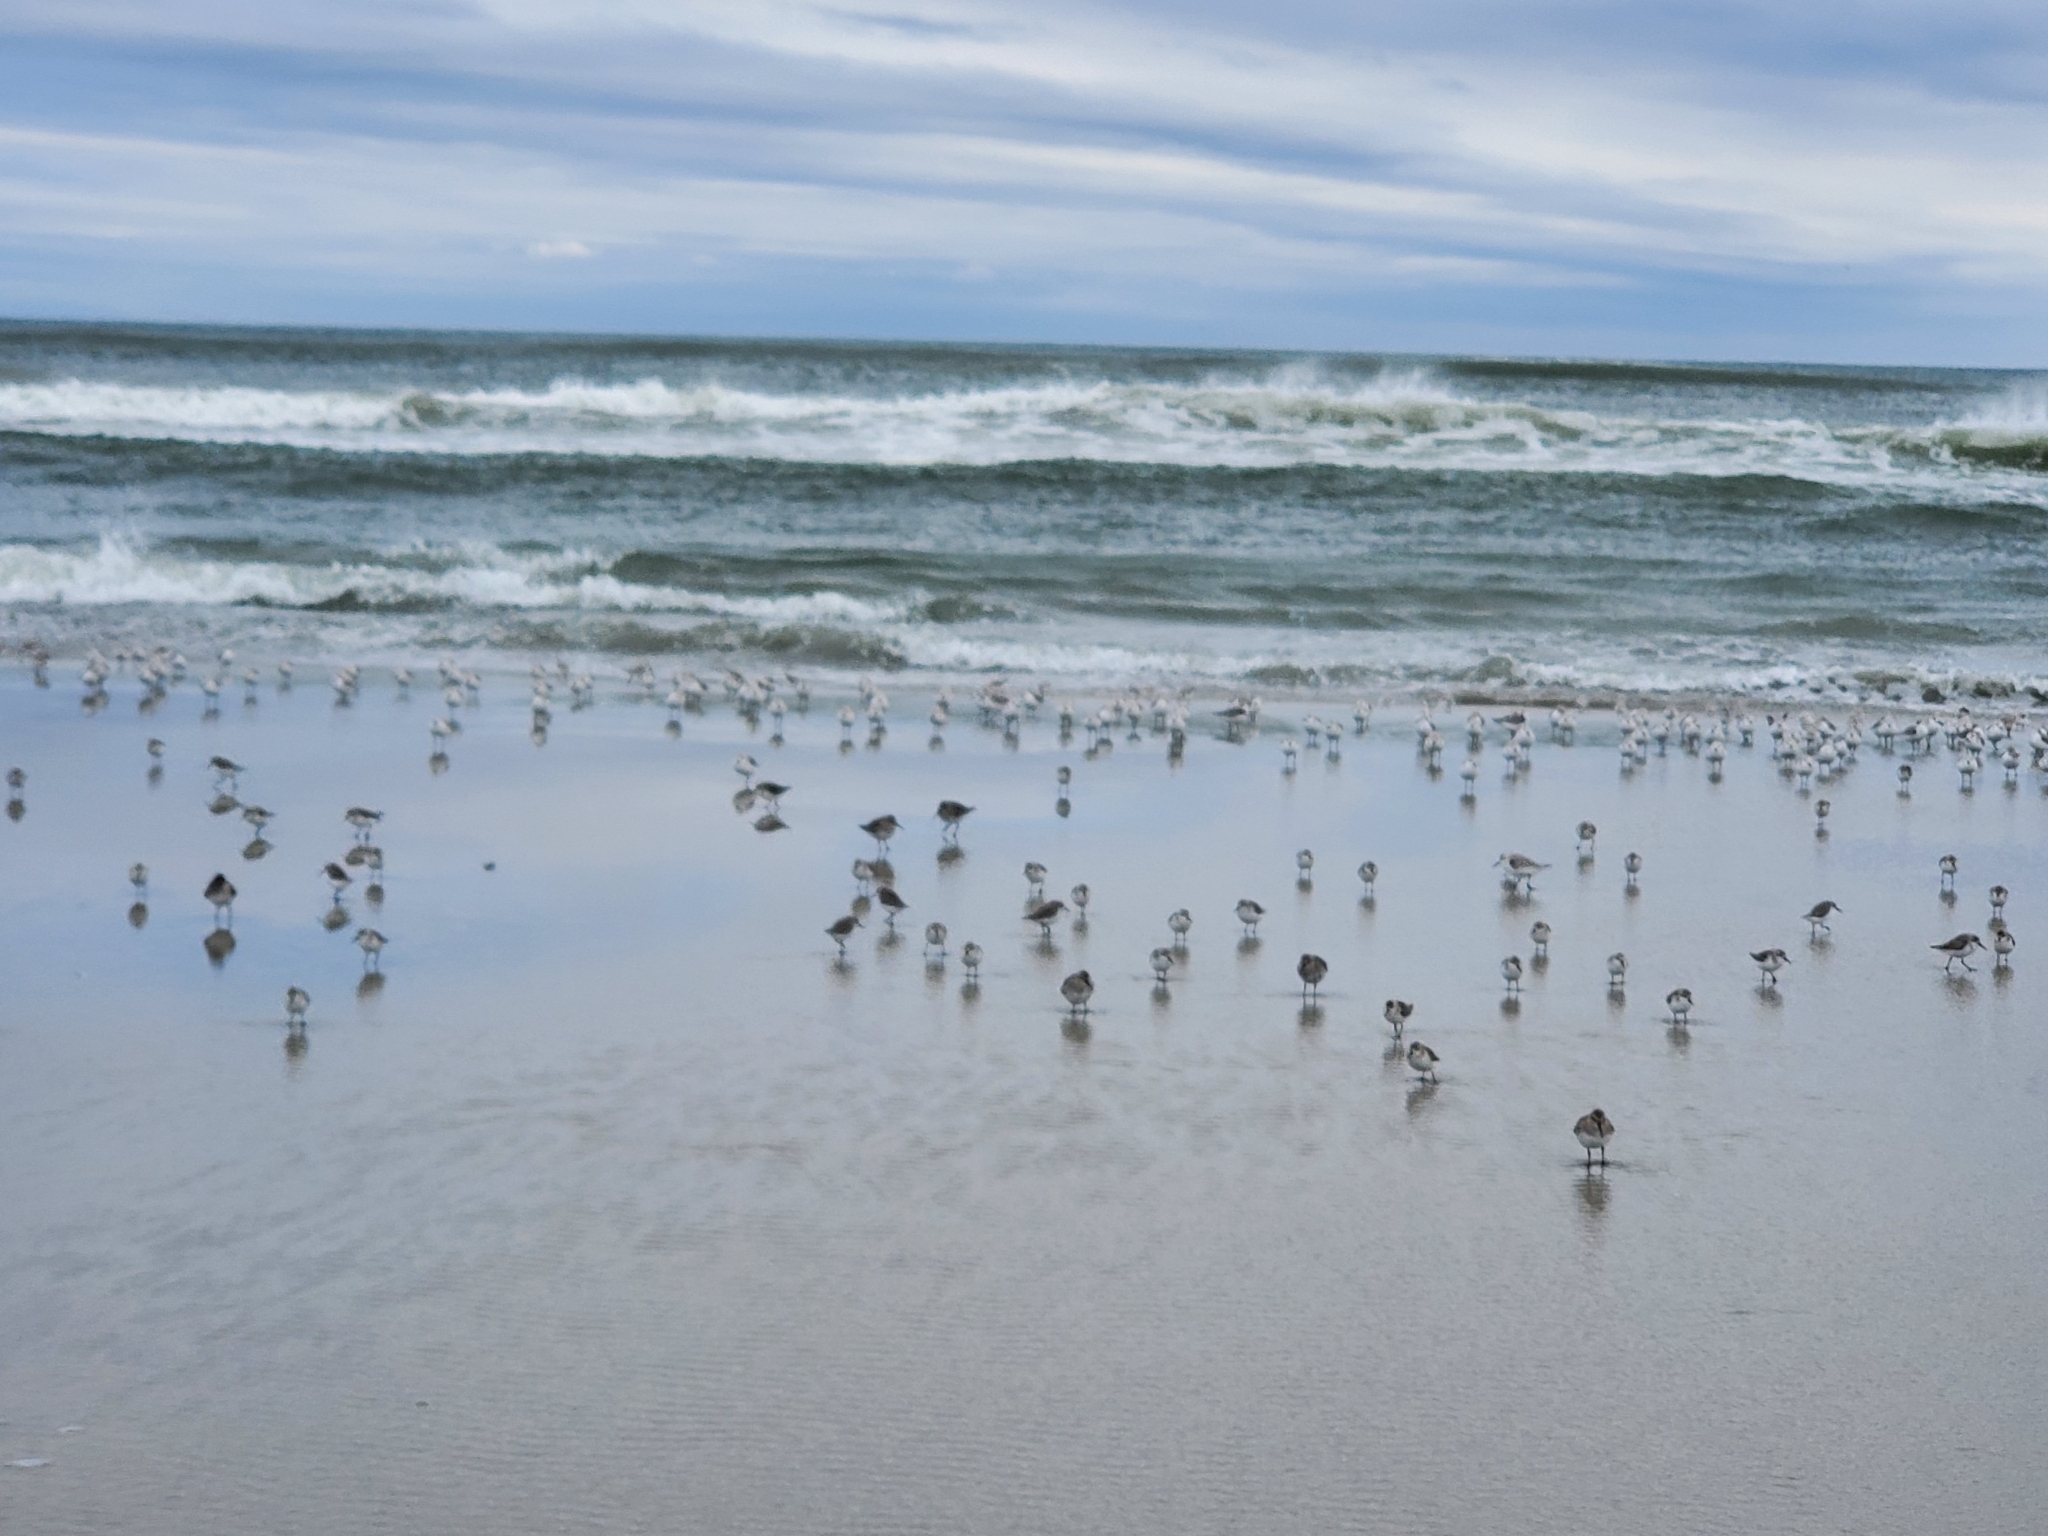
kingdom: Animalia
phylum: Chordata
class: Aves
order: Charadriiformes
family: Scolopacidae
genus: Calidris
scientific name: Calidris mauri
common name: Western sandpiper
